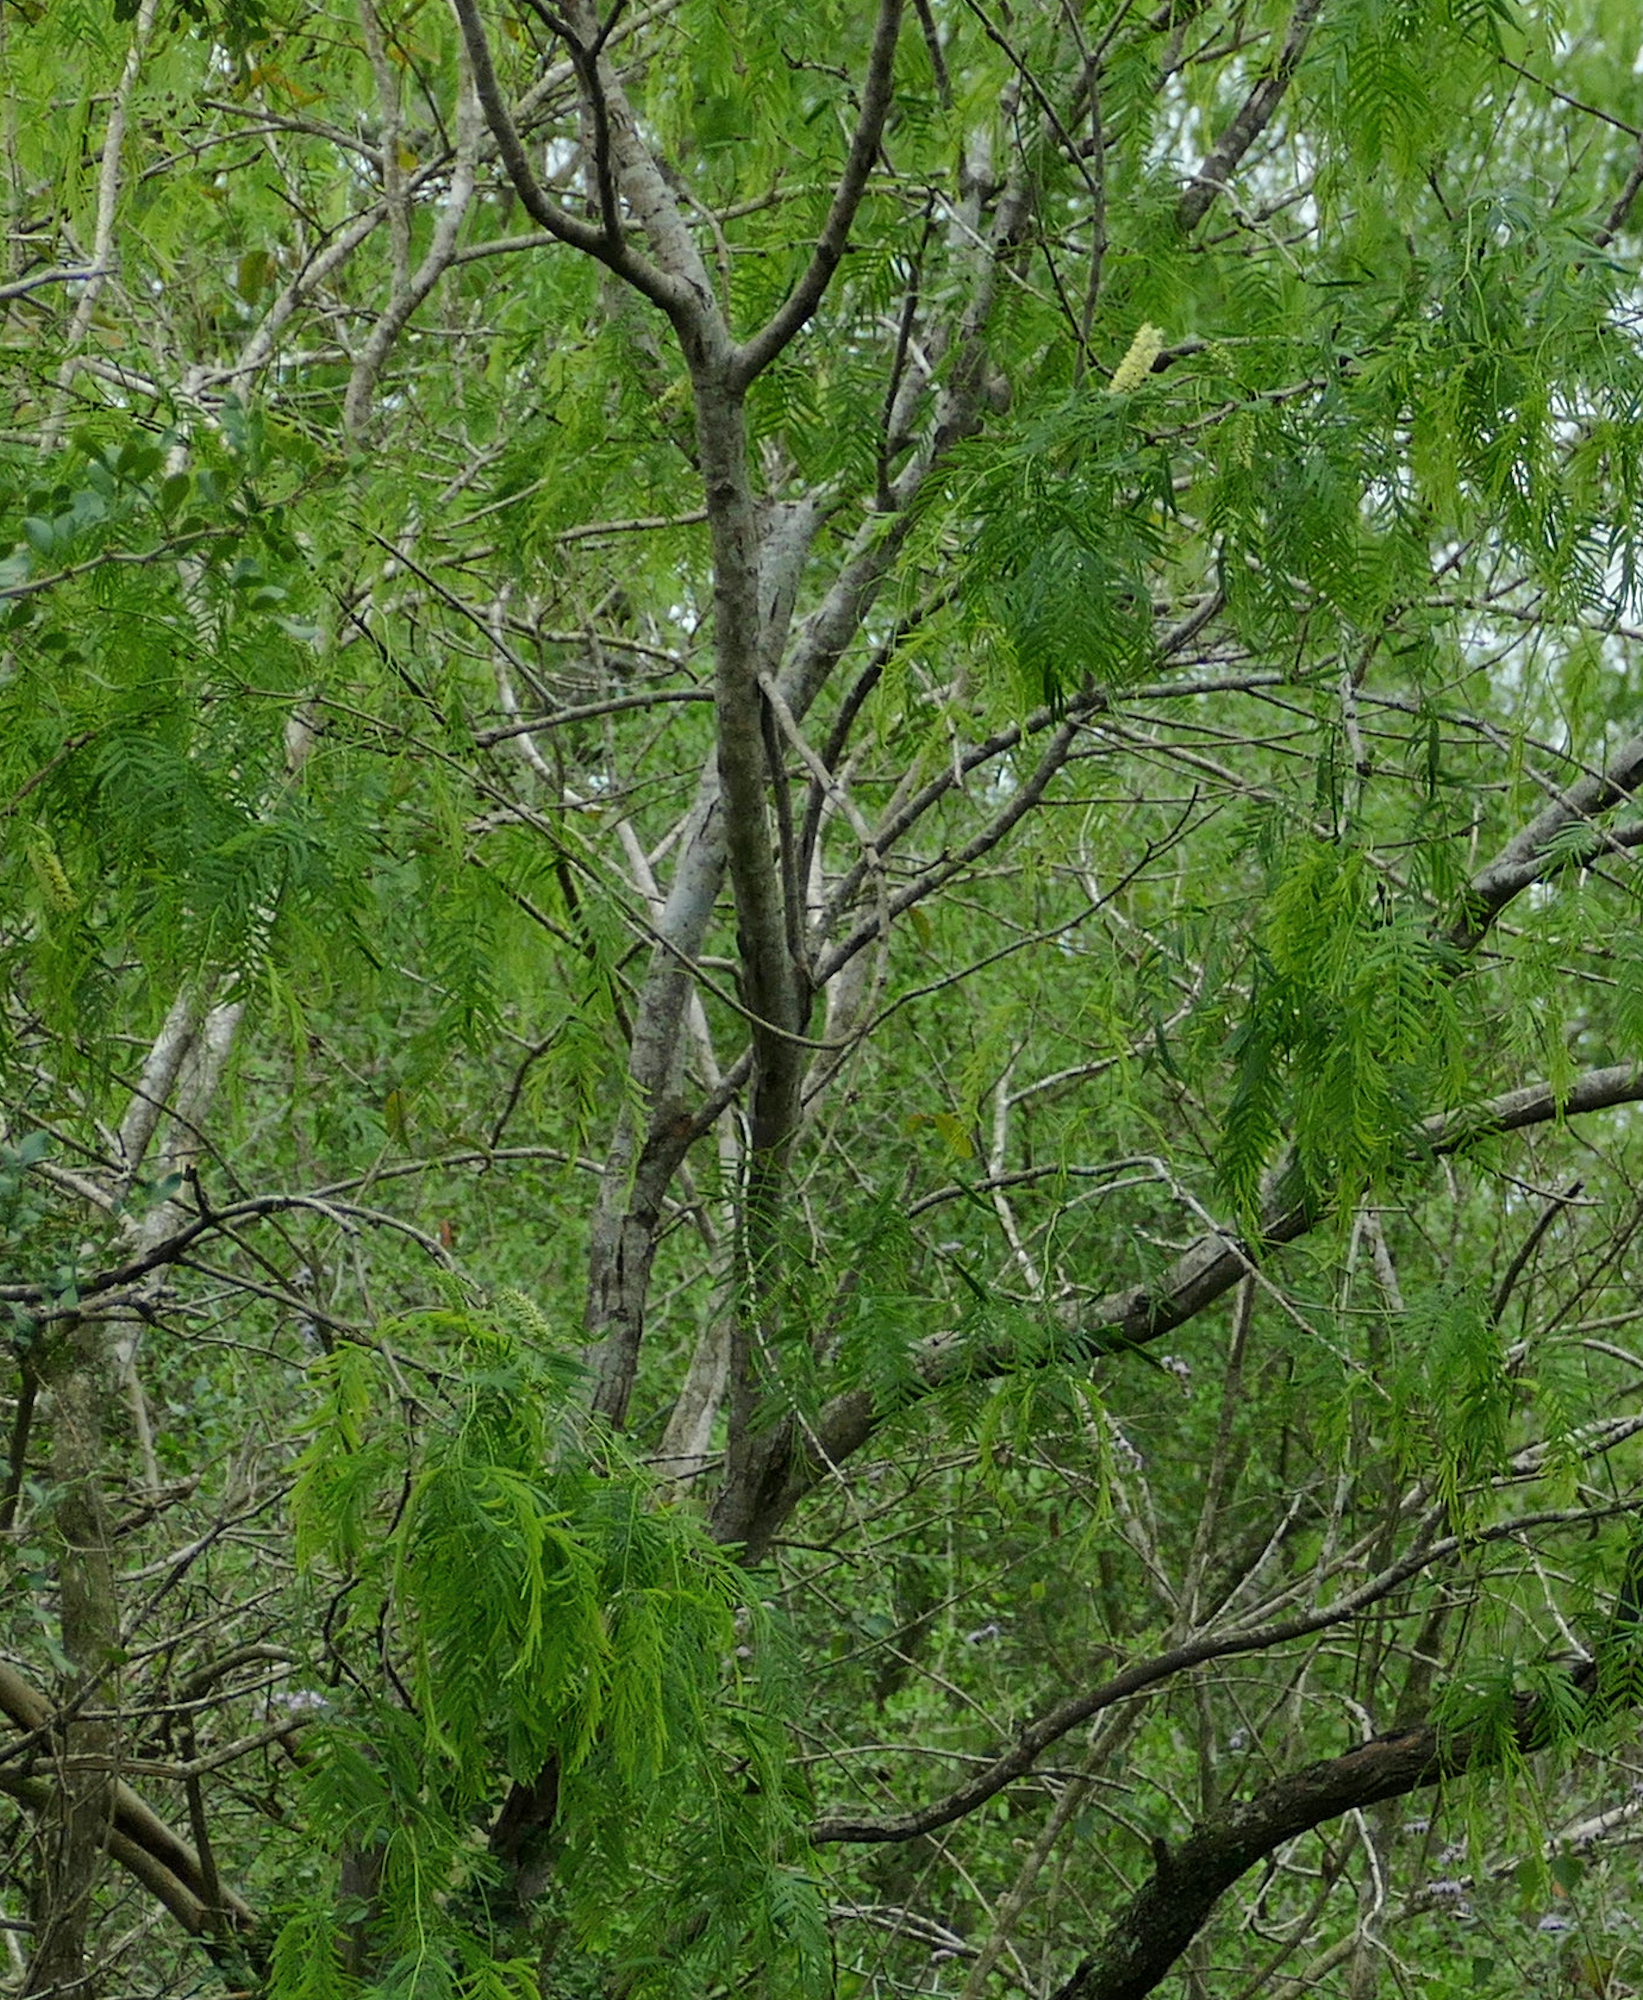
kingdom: Plantae
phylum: Tracheophyta
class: Magnoliopsida
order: Fabales
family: Fabaceae
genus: Prosopis
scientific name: Prosopis glandulosa
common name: Honey mesquite
